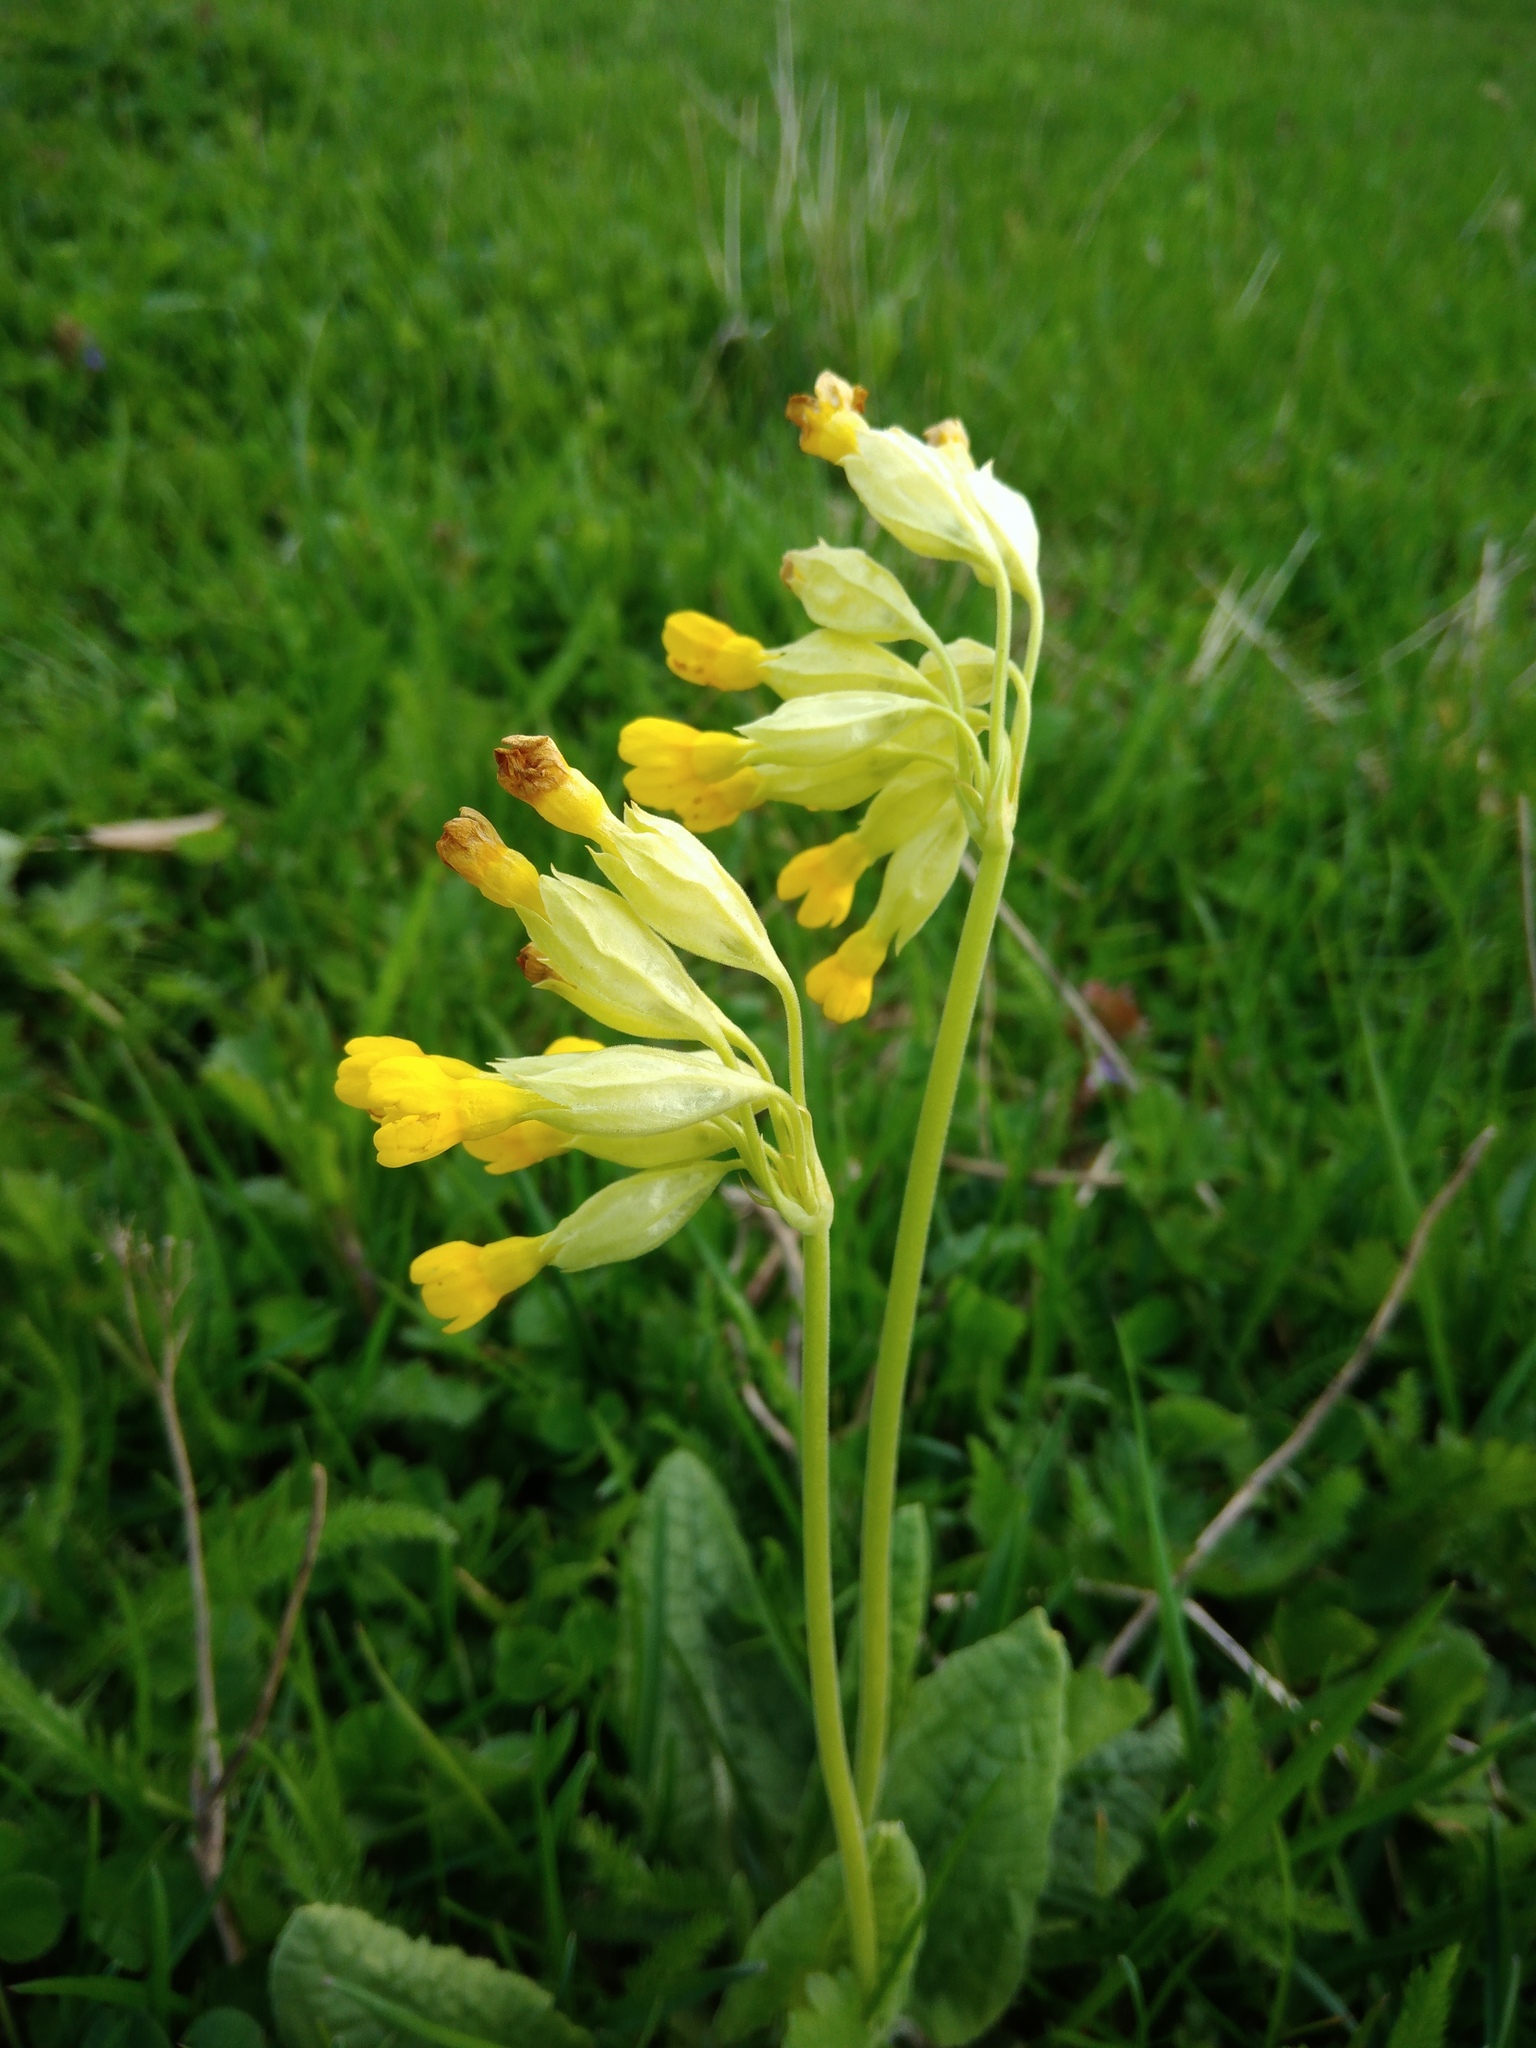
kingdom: Plantae
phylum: Tracheophyta
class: Magnoliopsida
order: Ericales
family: Primulaceae
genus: Primula
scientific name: Primula veris
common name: Cowslip
